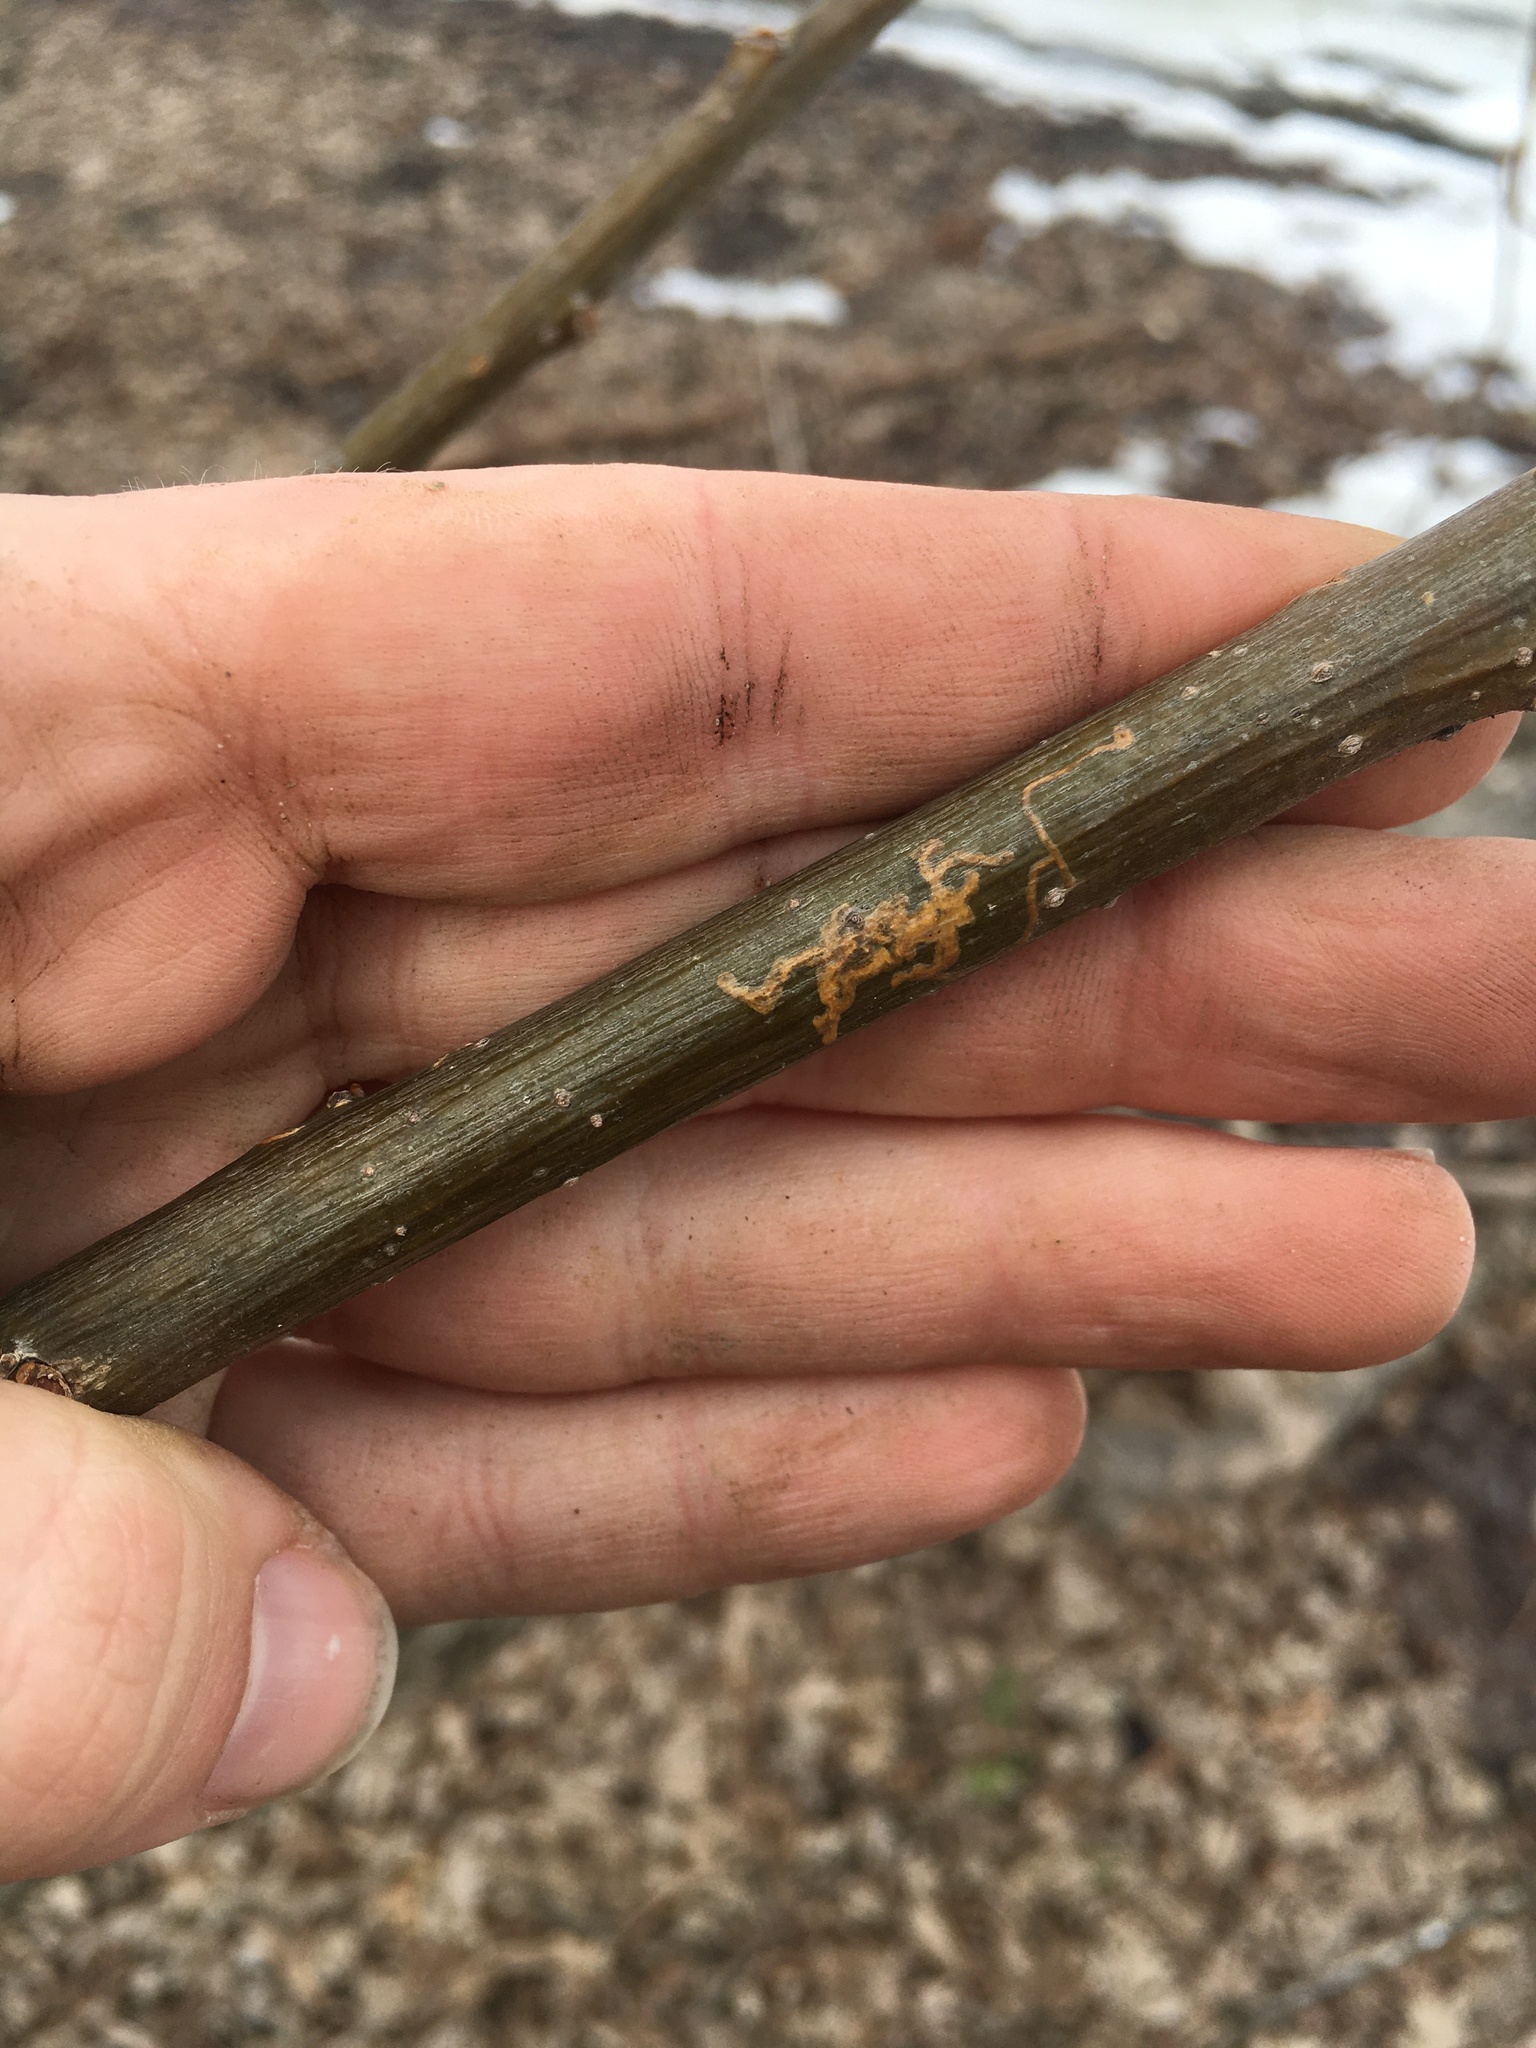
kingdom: Animalia
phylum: Arthropoda
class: Insecta
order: Lepidoptera
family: Gracillariidae
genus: Marmara
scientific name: Marmara salictella
